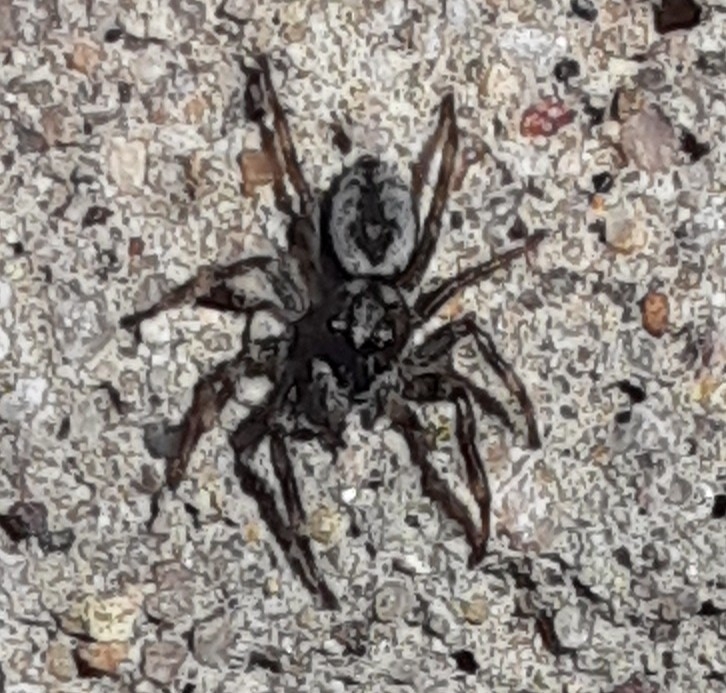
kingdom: Animalia
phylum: Arthropoda
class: Arachnida
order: Araneae
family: Salticidae
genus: Hakka
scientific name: Hakka himeshimensis
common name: Jumping spider
